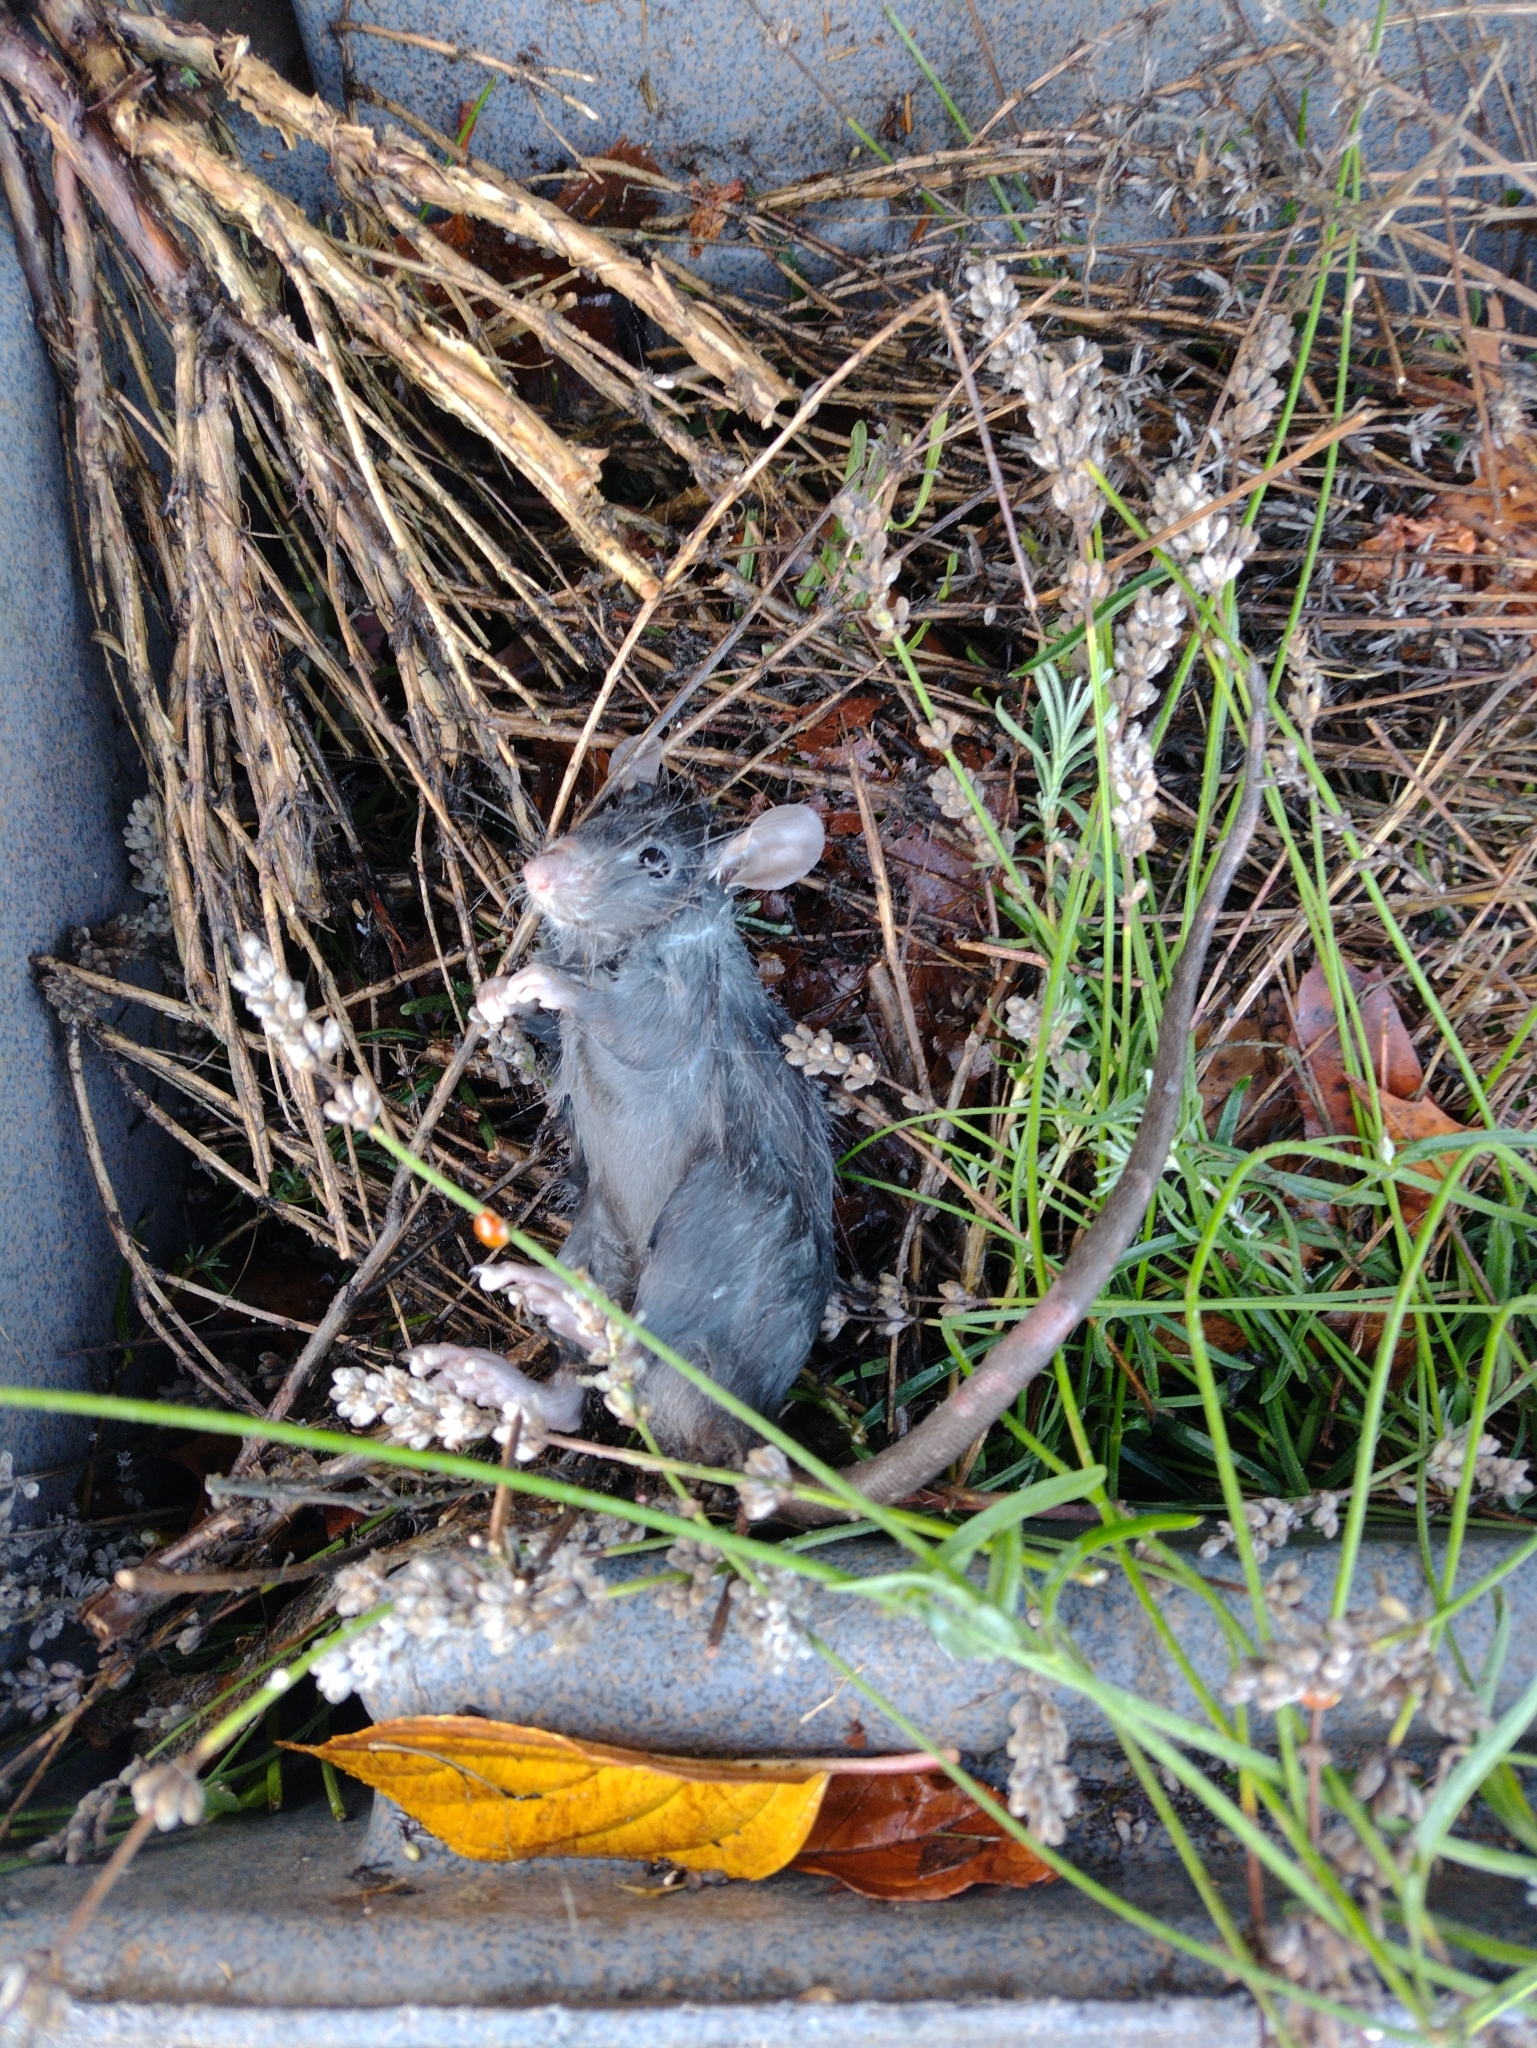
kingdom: Animalia
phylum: Chordata
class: Mammalia
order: Rodentia
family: Muridae
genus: Rattus
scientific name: Rattus rattus
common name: Black rat
